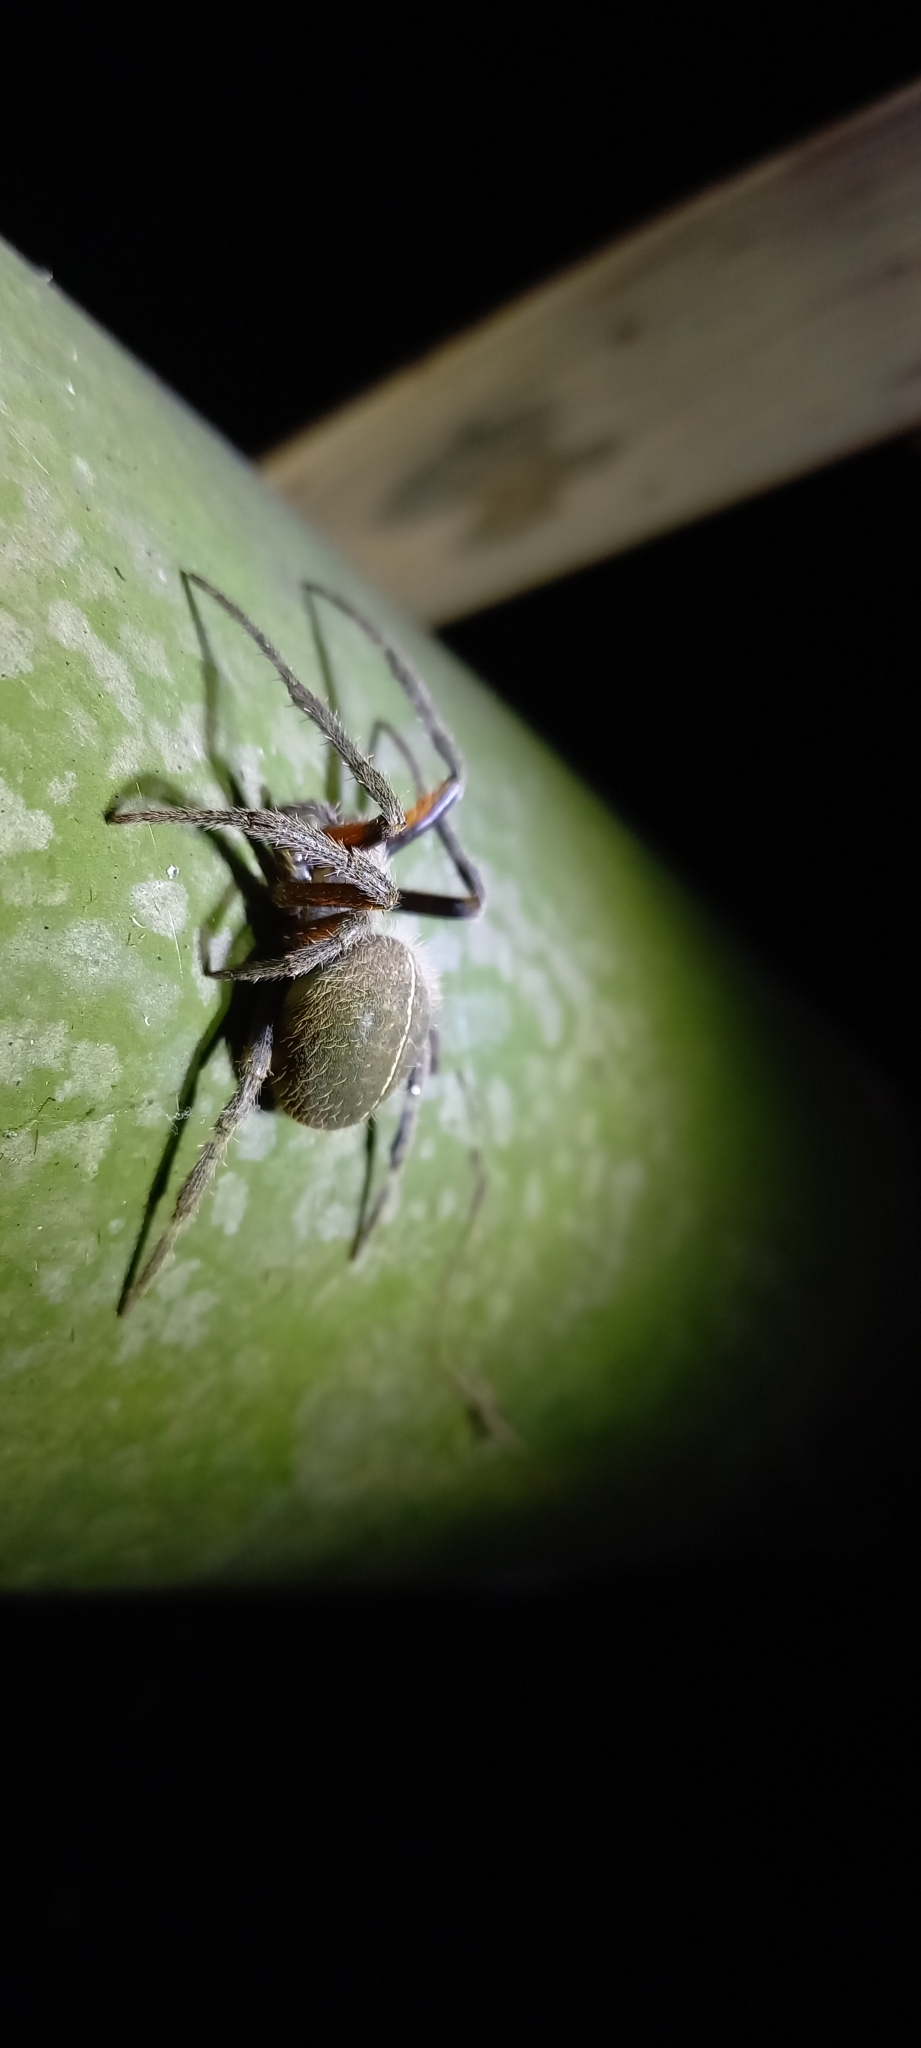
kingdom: Animalia
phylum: Arthropoda
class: Arachnida
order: Araneae
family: Araneidae
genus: Eriophora
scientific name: Eriophora fuliginea
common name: Orb weavers
